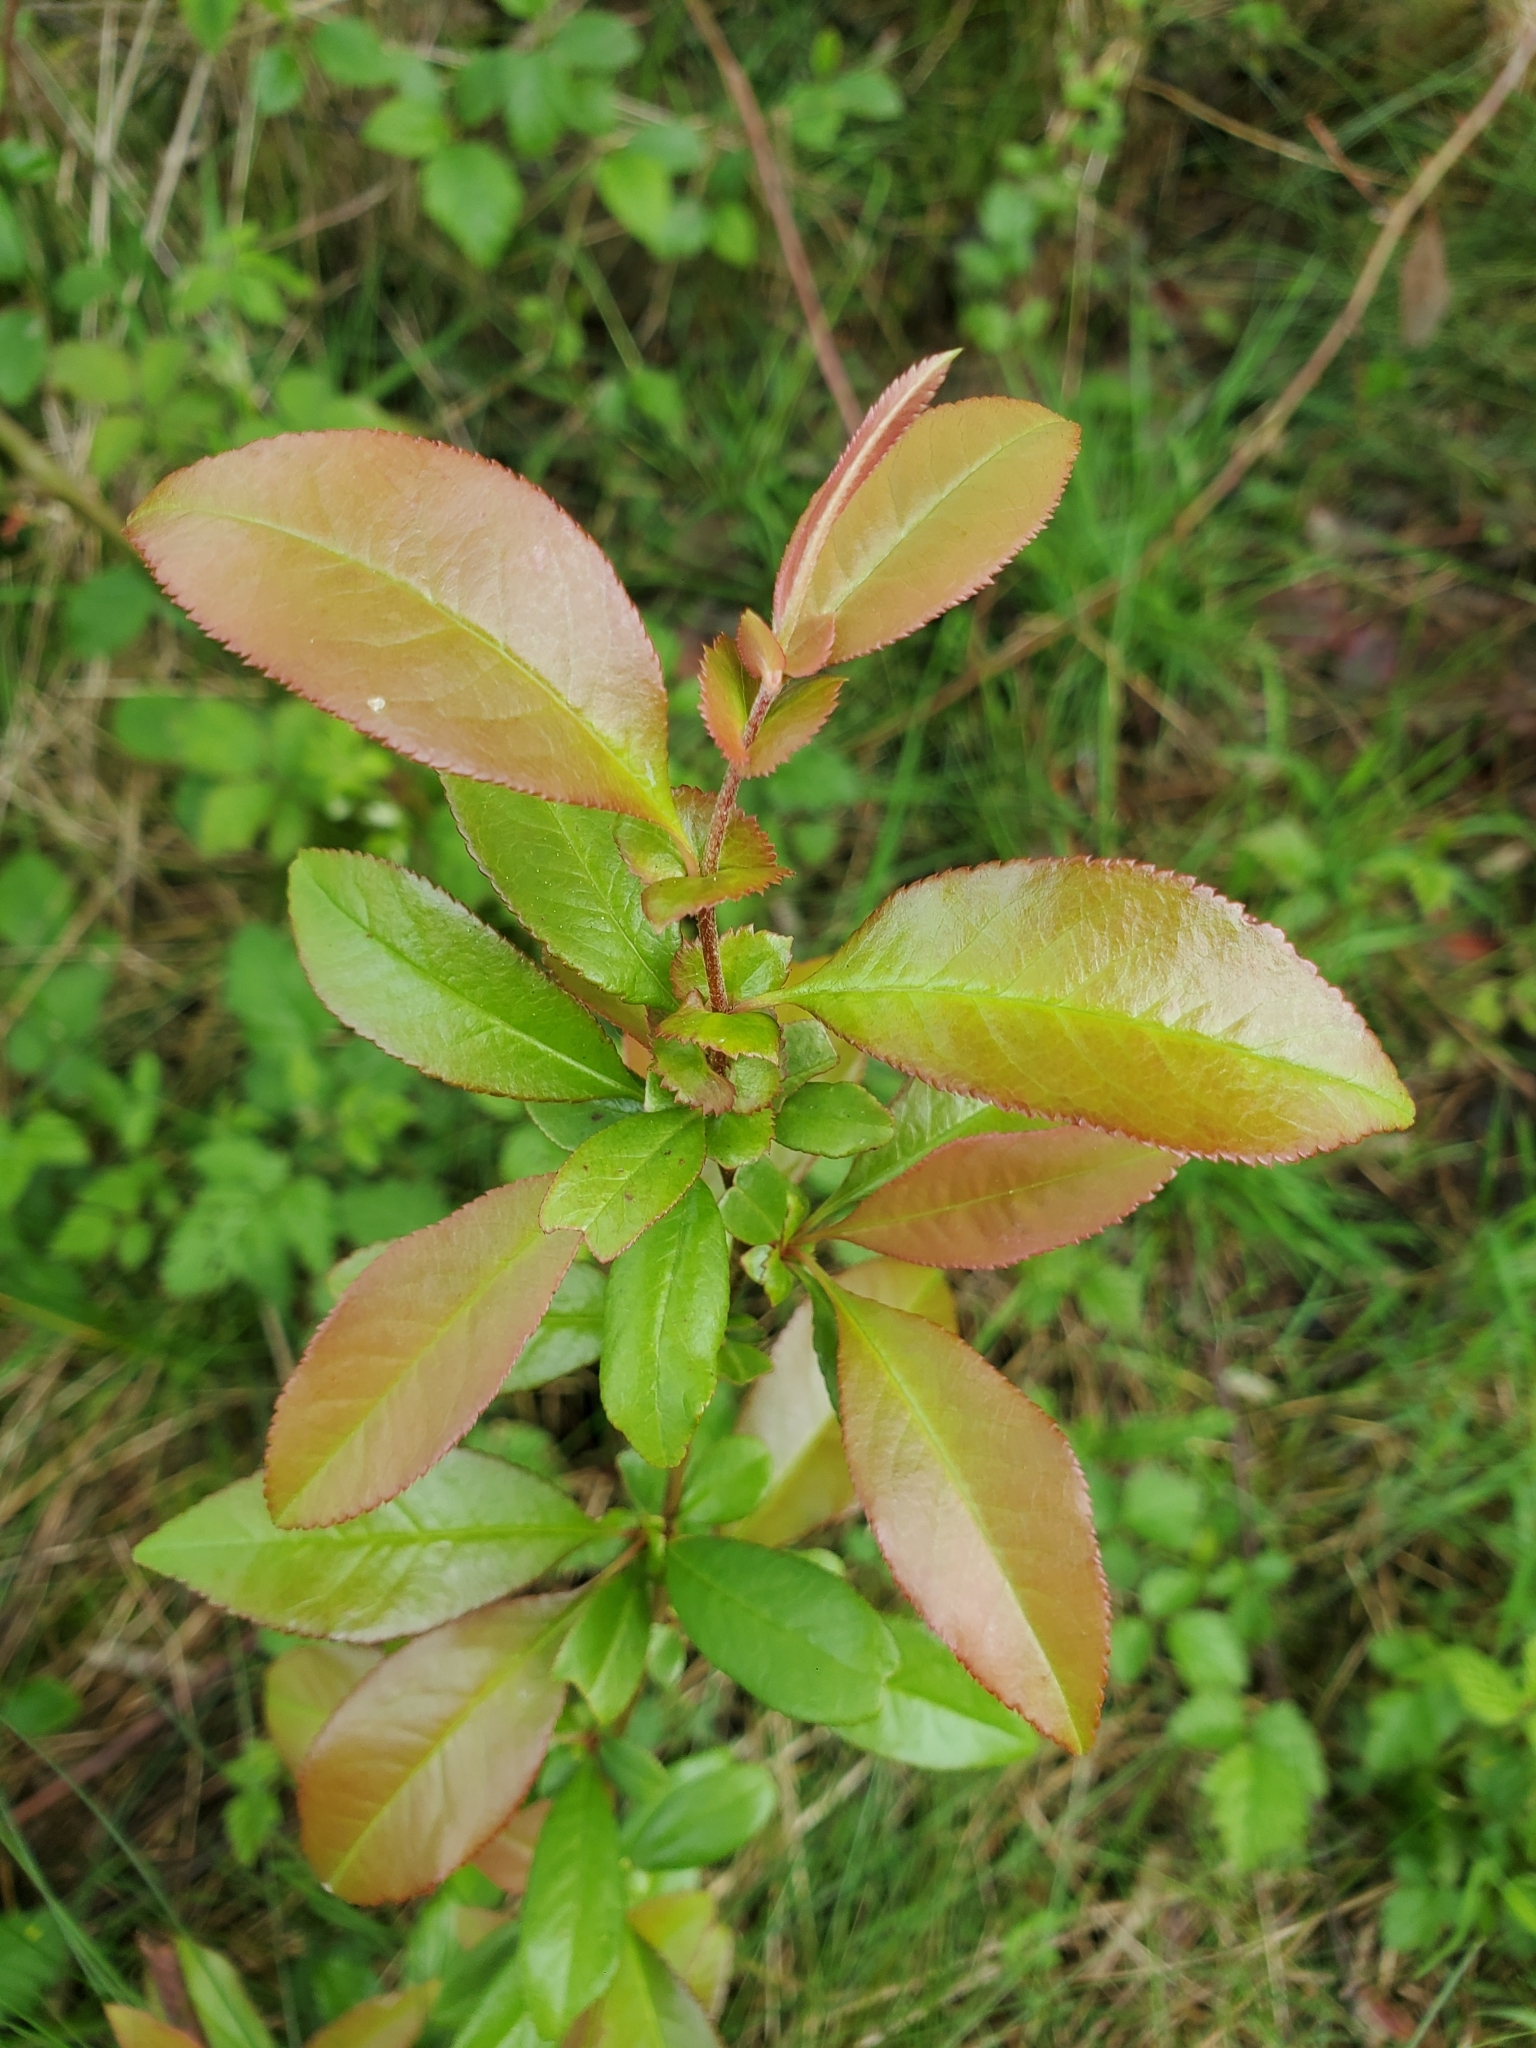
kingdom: Plantae
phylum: Tracheophyta
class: Magnoliopsida
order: Rosales
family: Rosaceae
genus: Chaenomeles
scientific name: Chaenomeles speciosa
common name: Japanese quince
